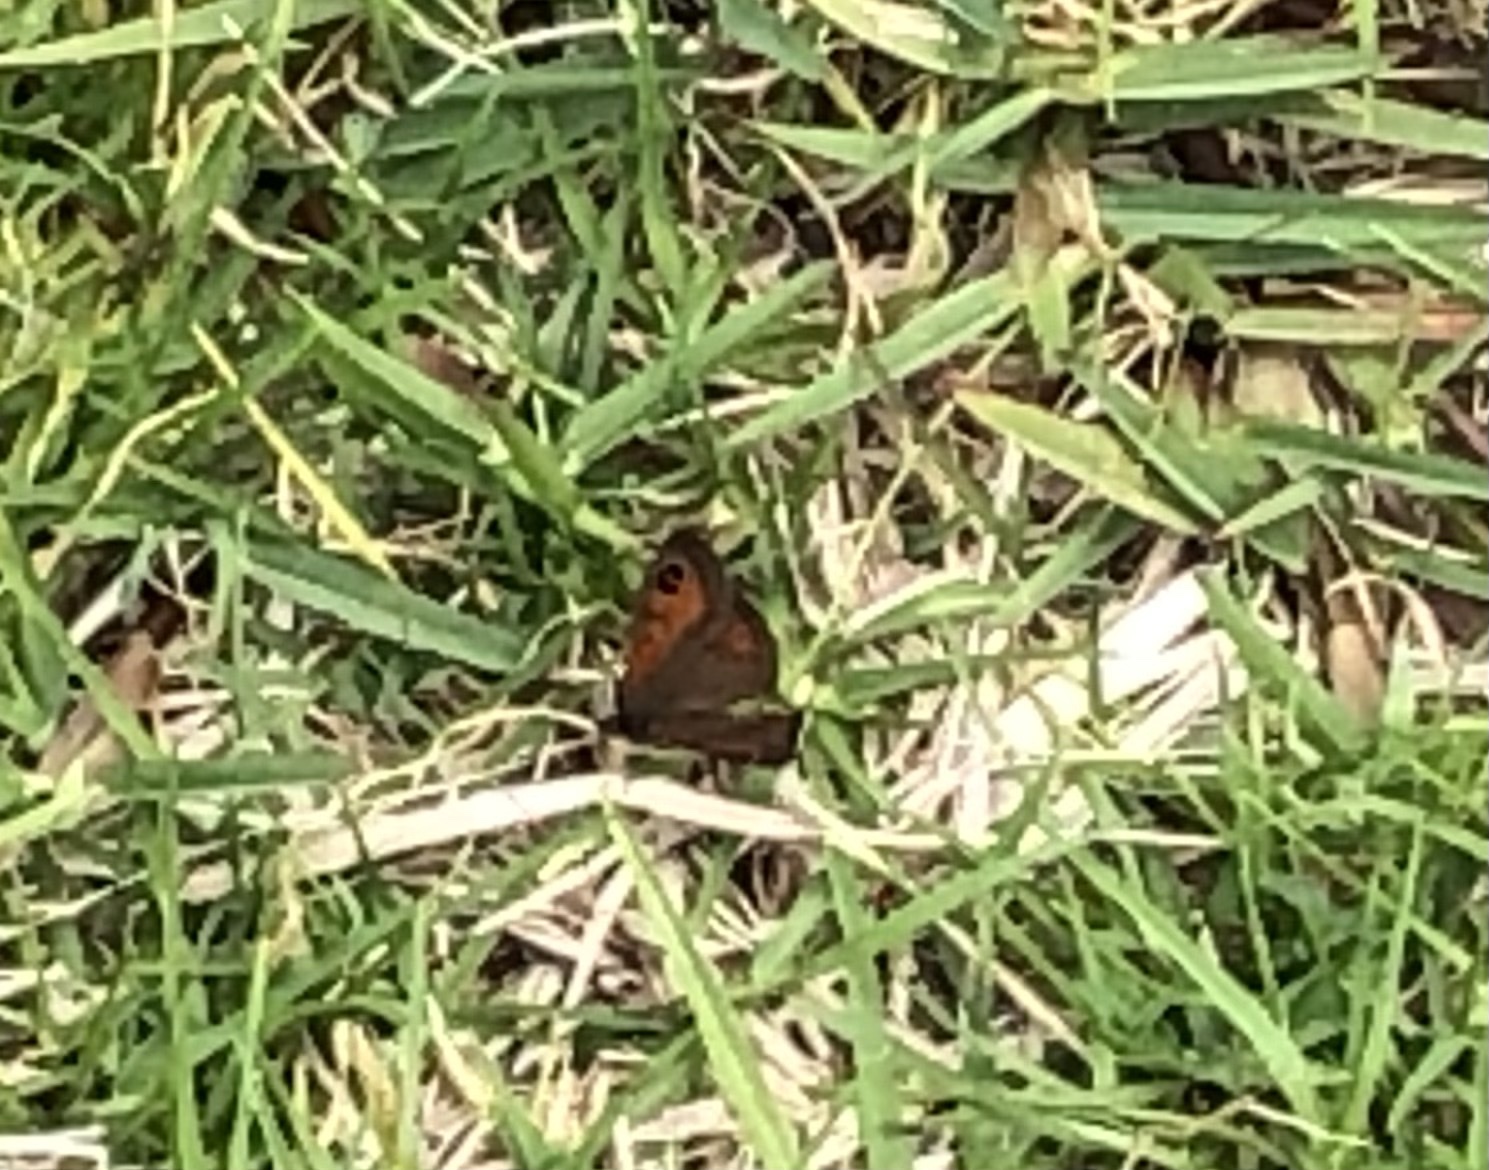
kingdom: Animalia
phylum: Arthropoda
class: Insecta
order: Lepidoptera
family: Nymphalidae
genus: Pseudonympha
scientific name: Pseudonympha magus
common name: Silver-bottom brown
